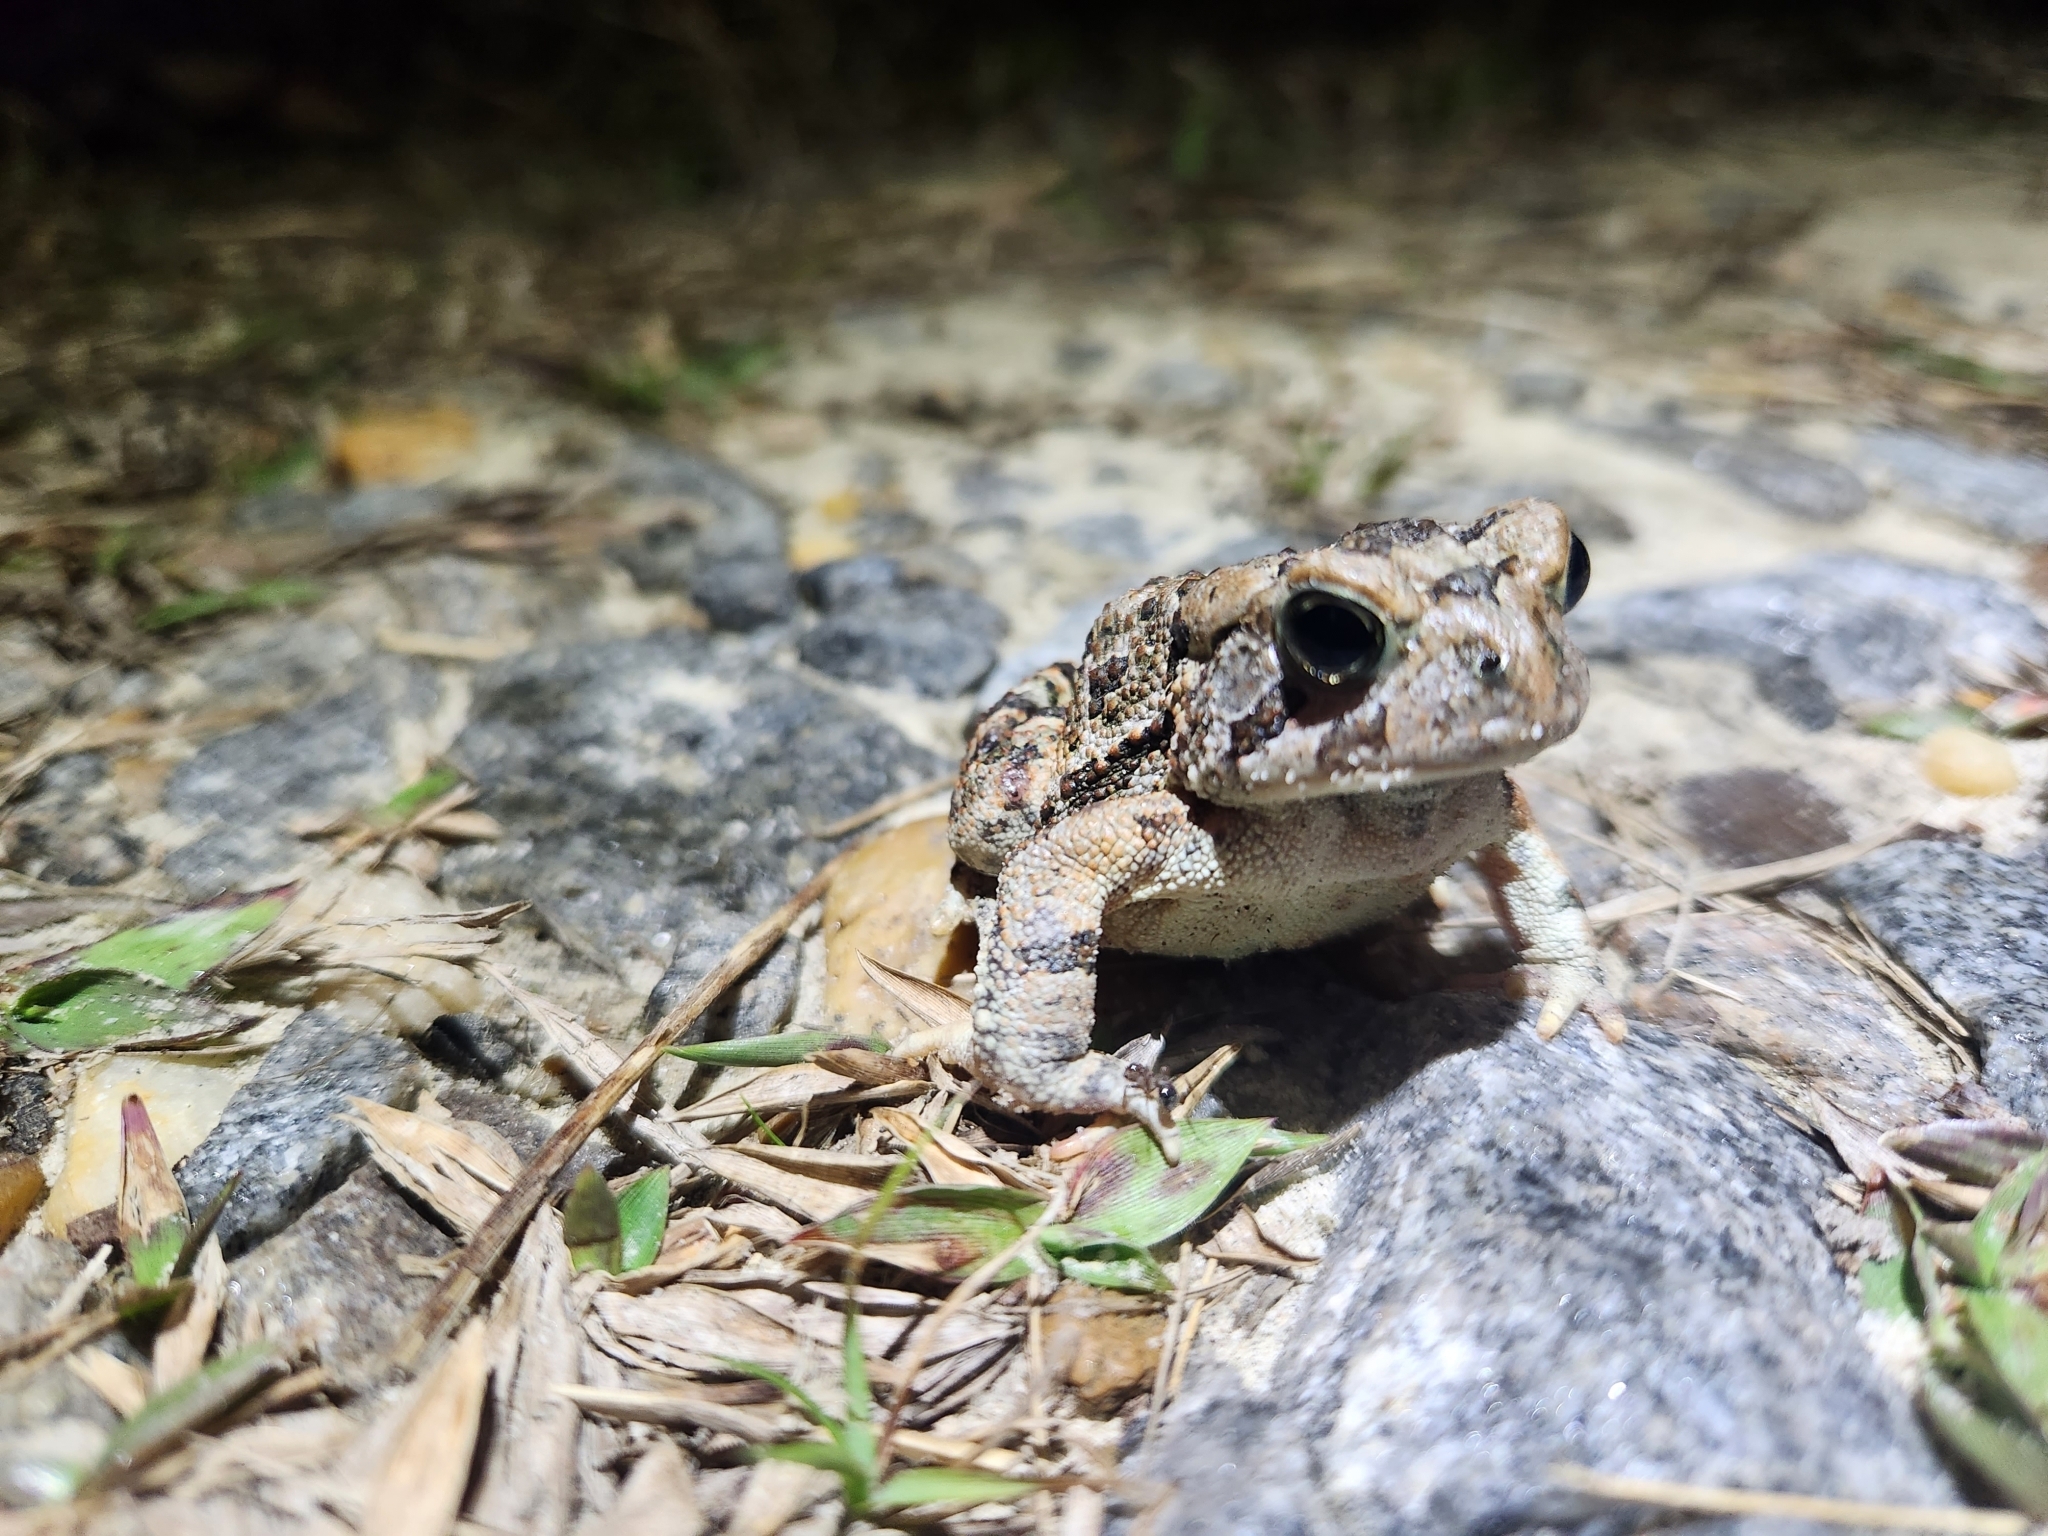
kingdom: Animalia
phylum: Chordata
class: Amphibia
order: Anura
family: Bufonidae
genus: Anaxyrus
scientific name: Anaxyrus terrestris
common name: Southern toad
